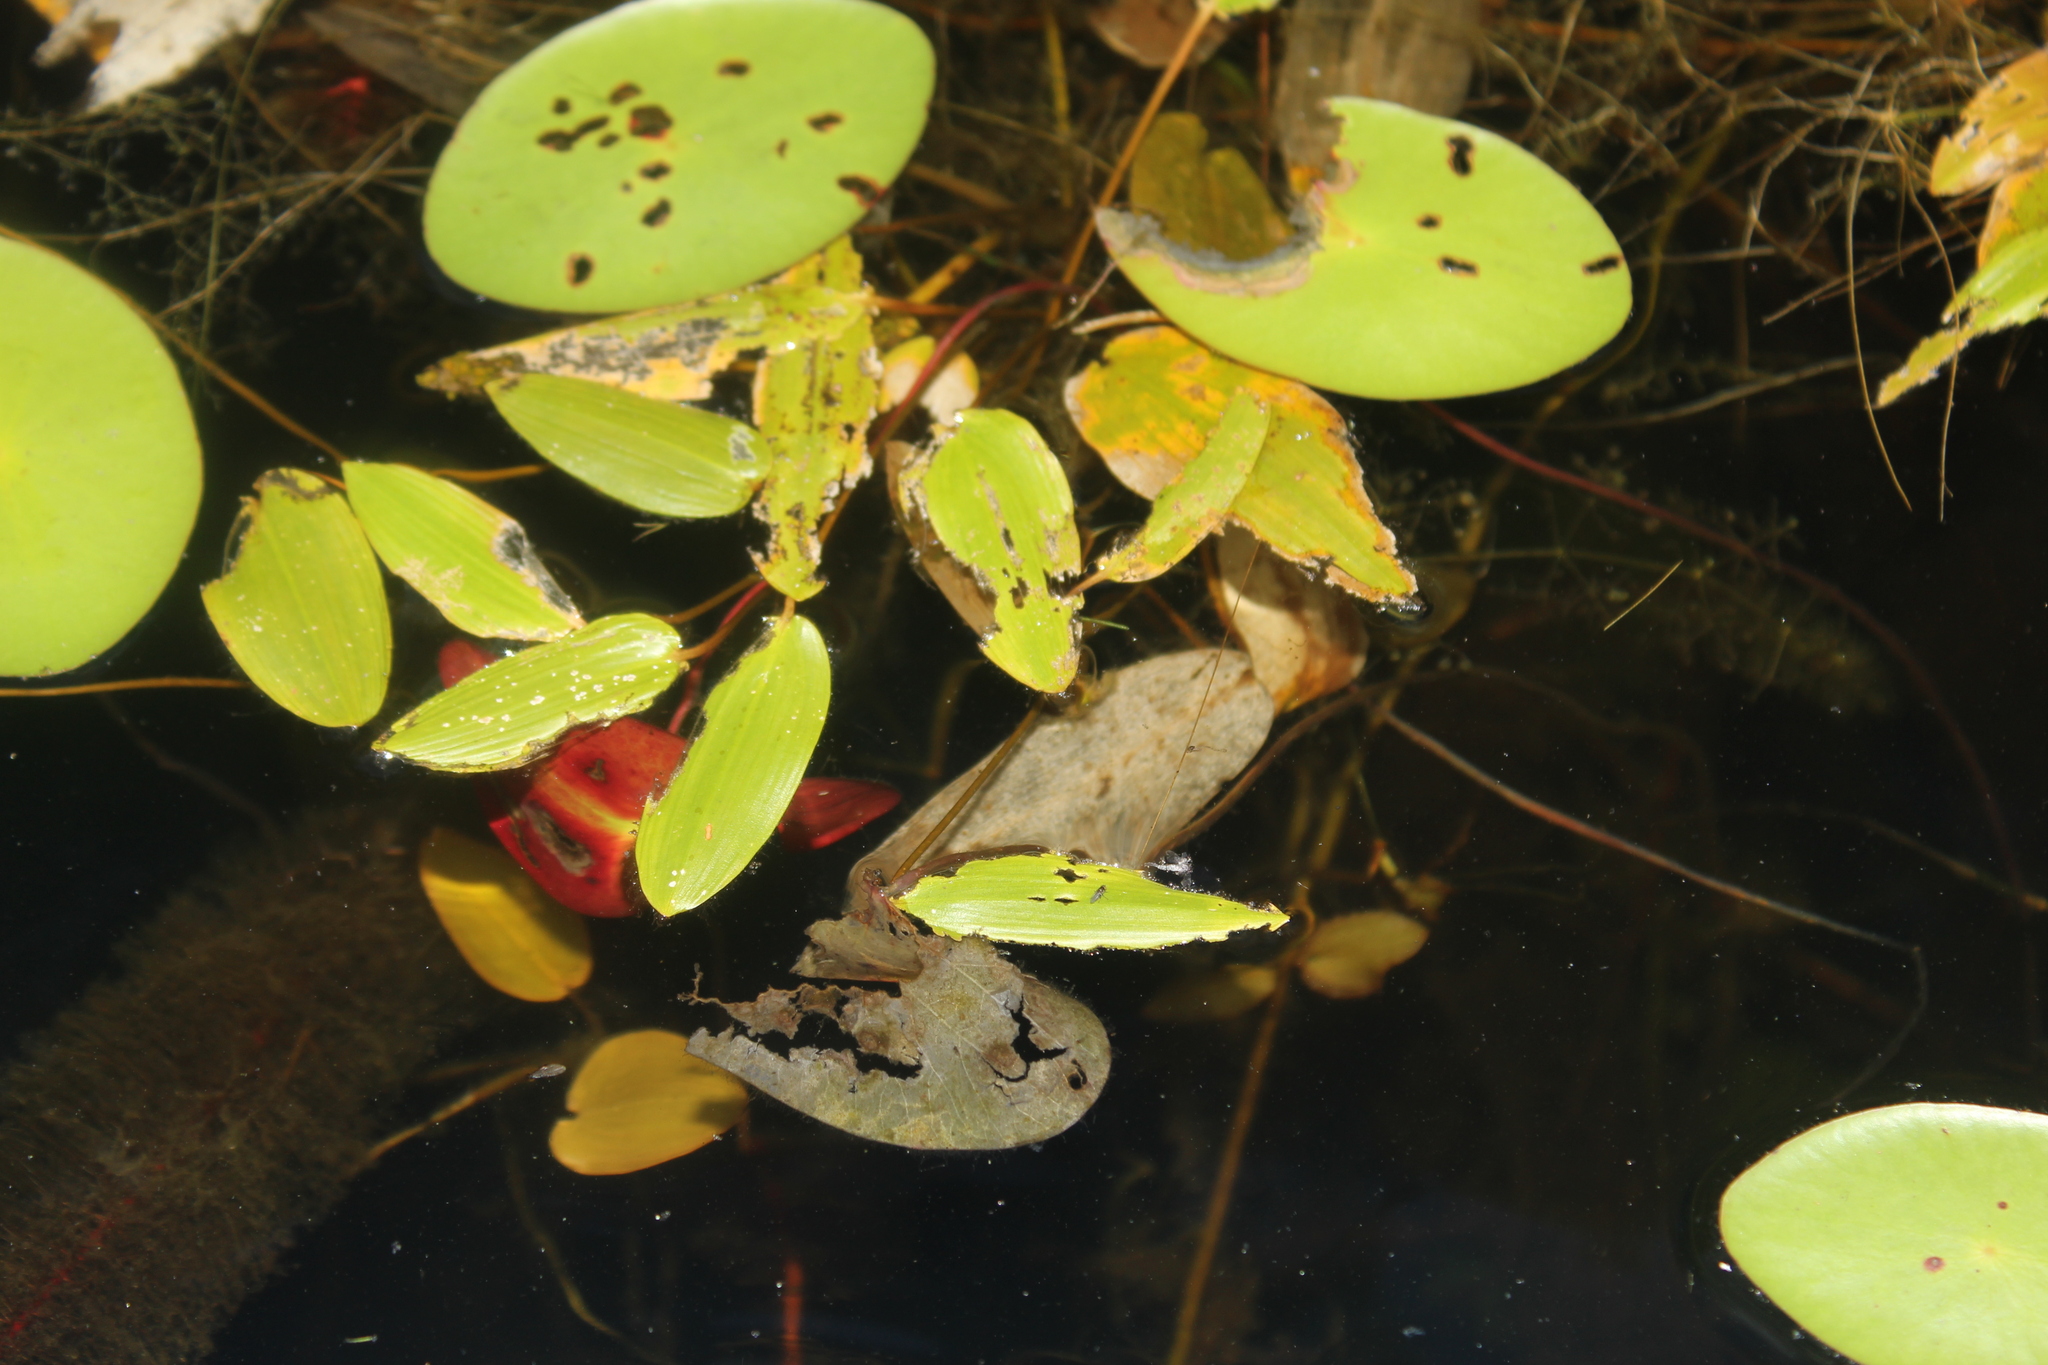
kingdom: Plantae
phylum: Tracheophyta
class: Liliopsida
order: Alismatales
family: Potamogetonaceae
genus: Potamogeton
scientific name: Potamogeton natans
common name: Broad-leaved pondweed
